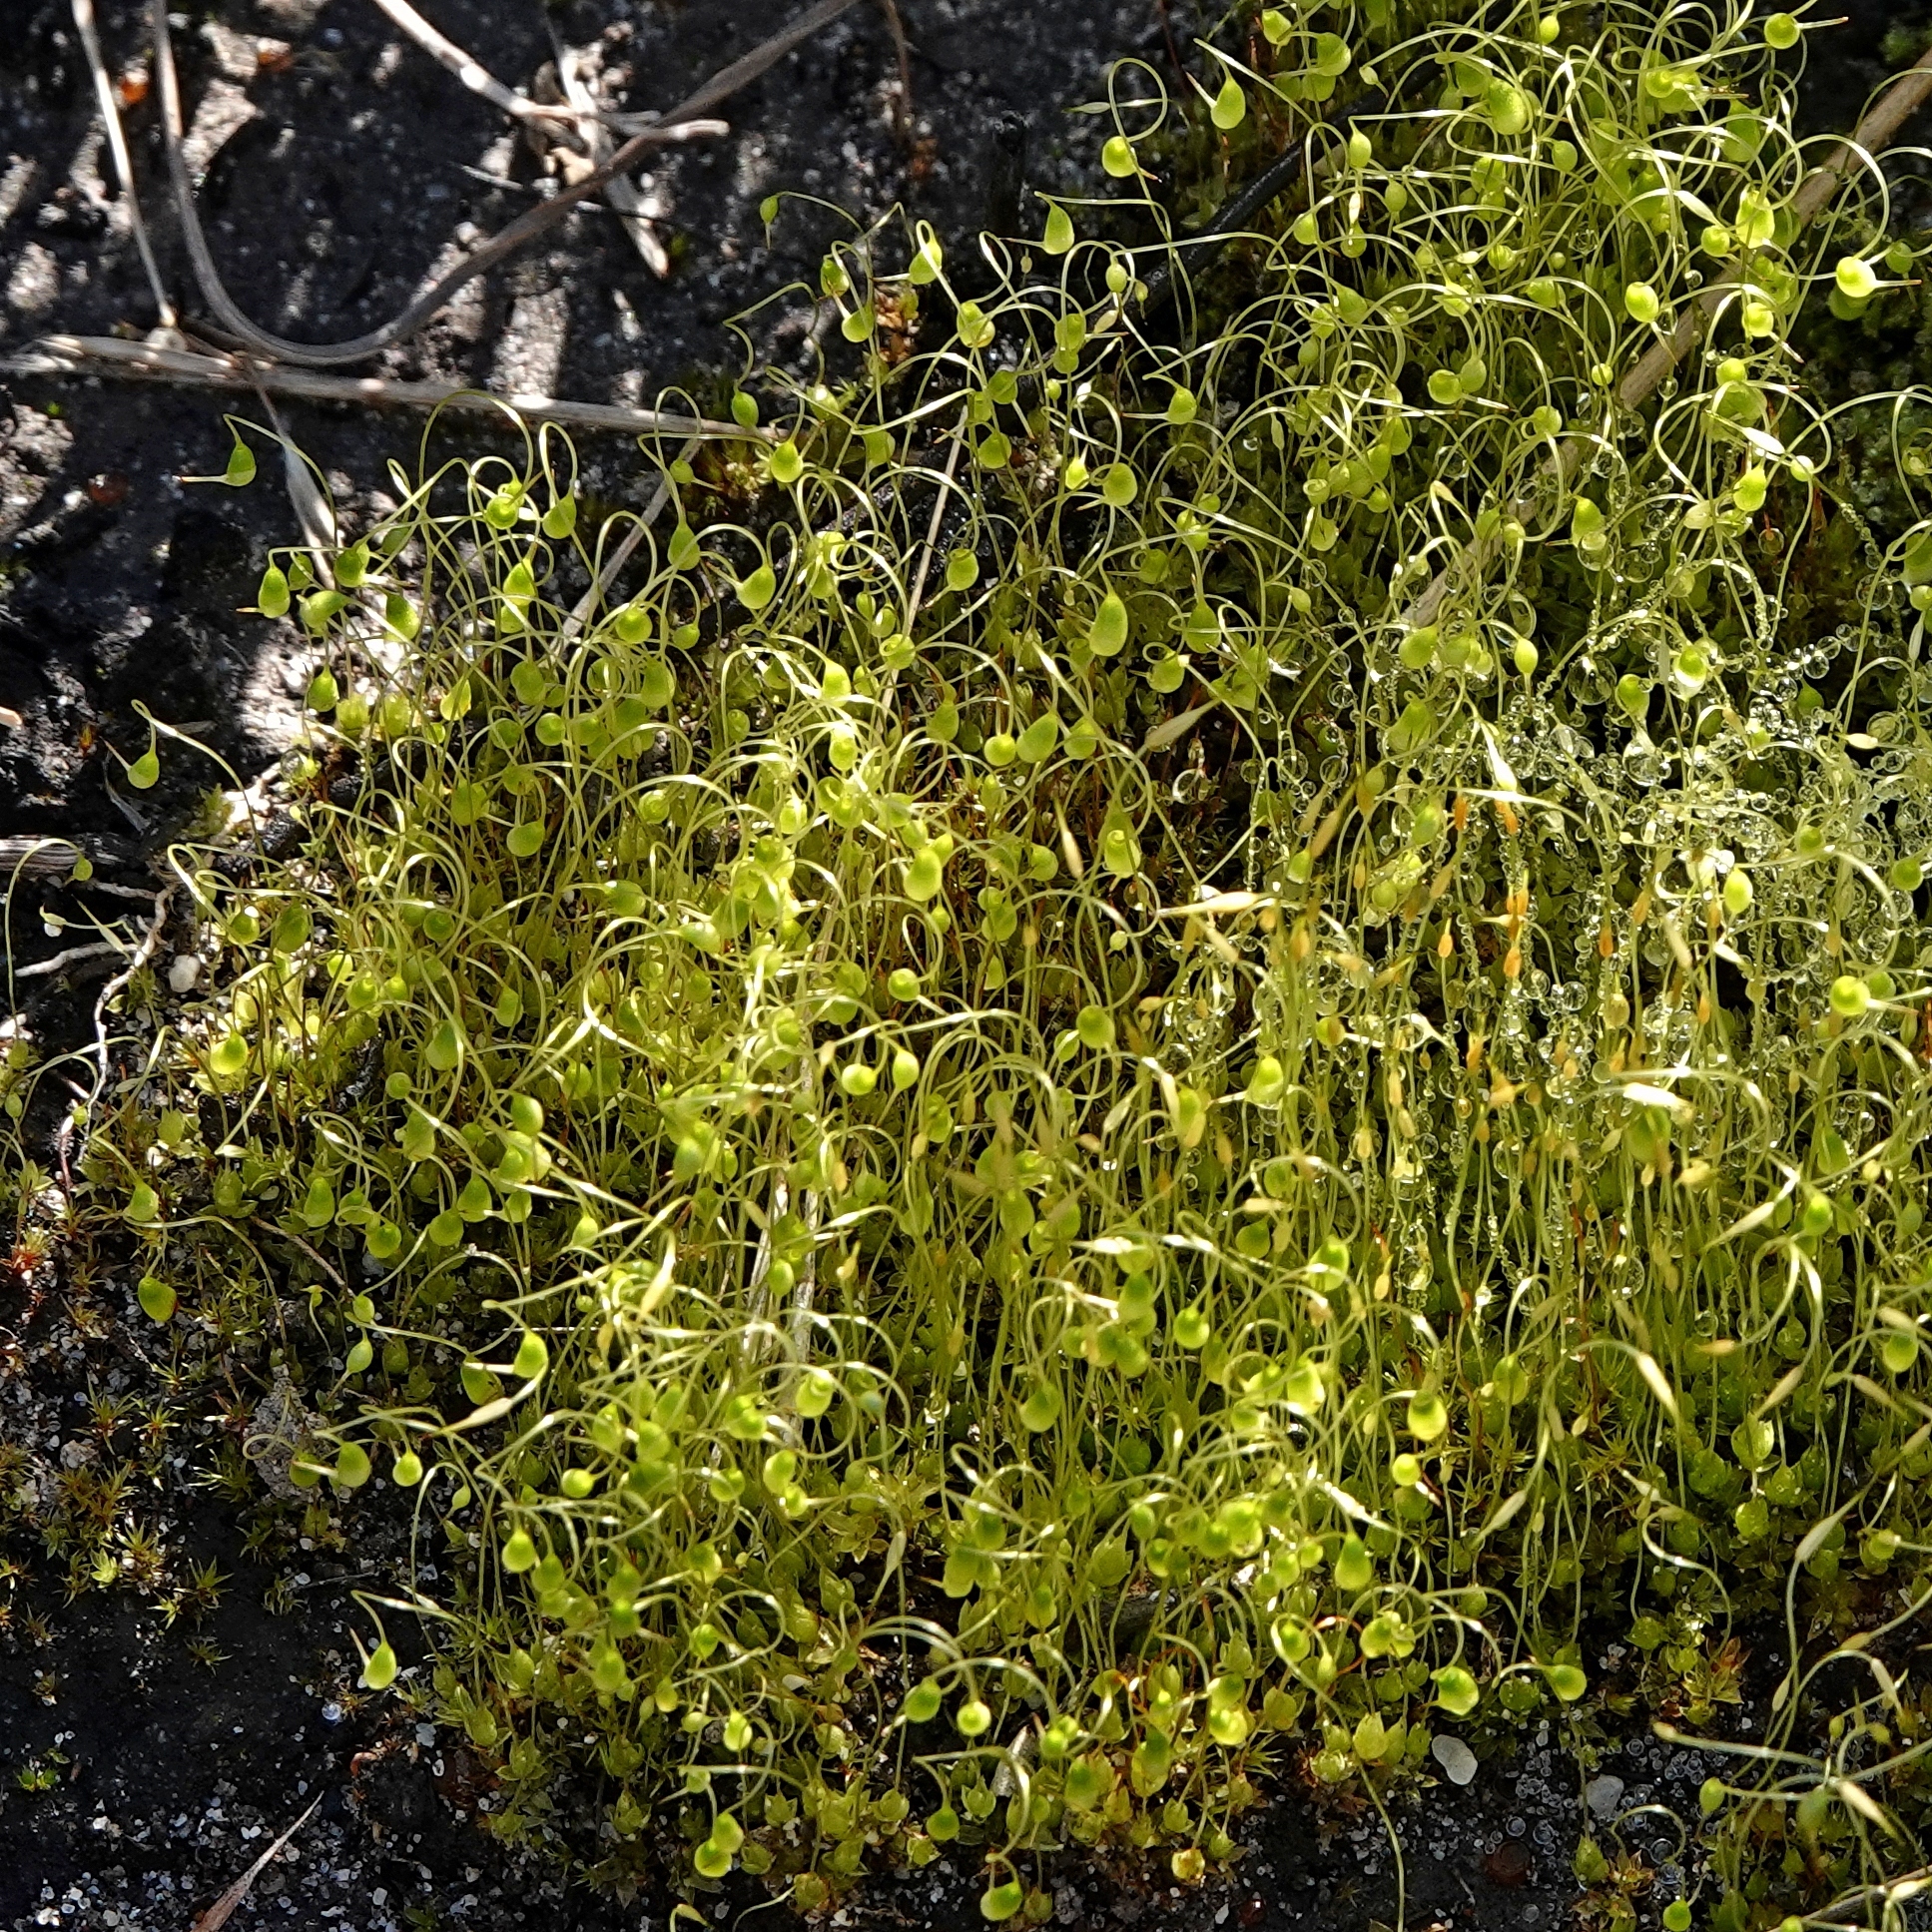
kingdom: Plantae
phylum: Bryophyta
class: Bryopsida
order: Funariales
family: Funariaceae
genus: Funaria
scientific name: Funaria hygrometrica
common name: Common cord moss
